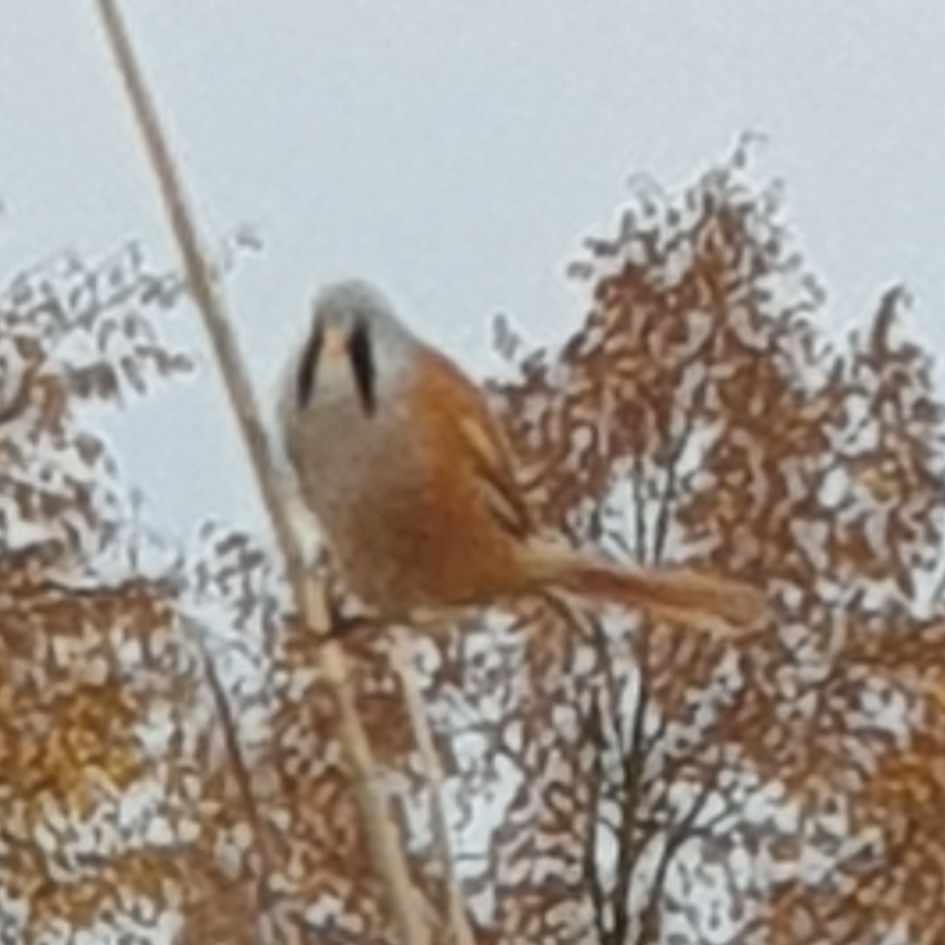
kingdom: Animalia
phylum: Chordata
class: Aves
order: Passeriformes
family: Panuridae
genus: Panurus
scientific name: Panurus biarmicus
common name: Bearded reedling
